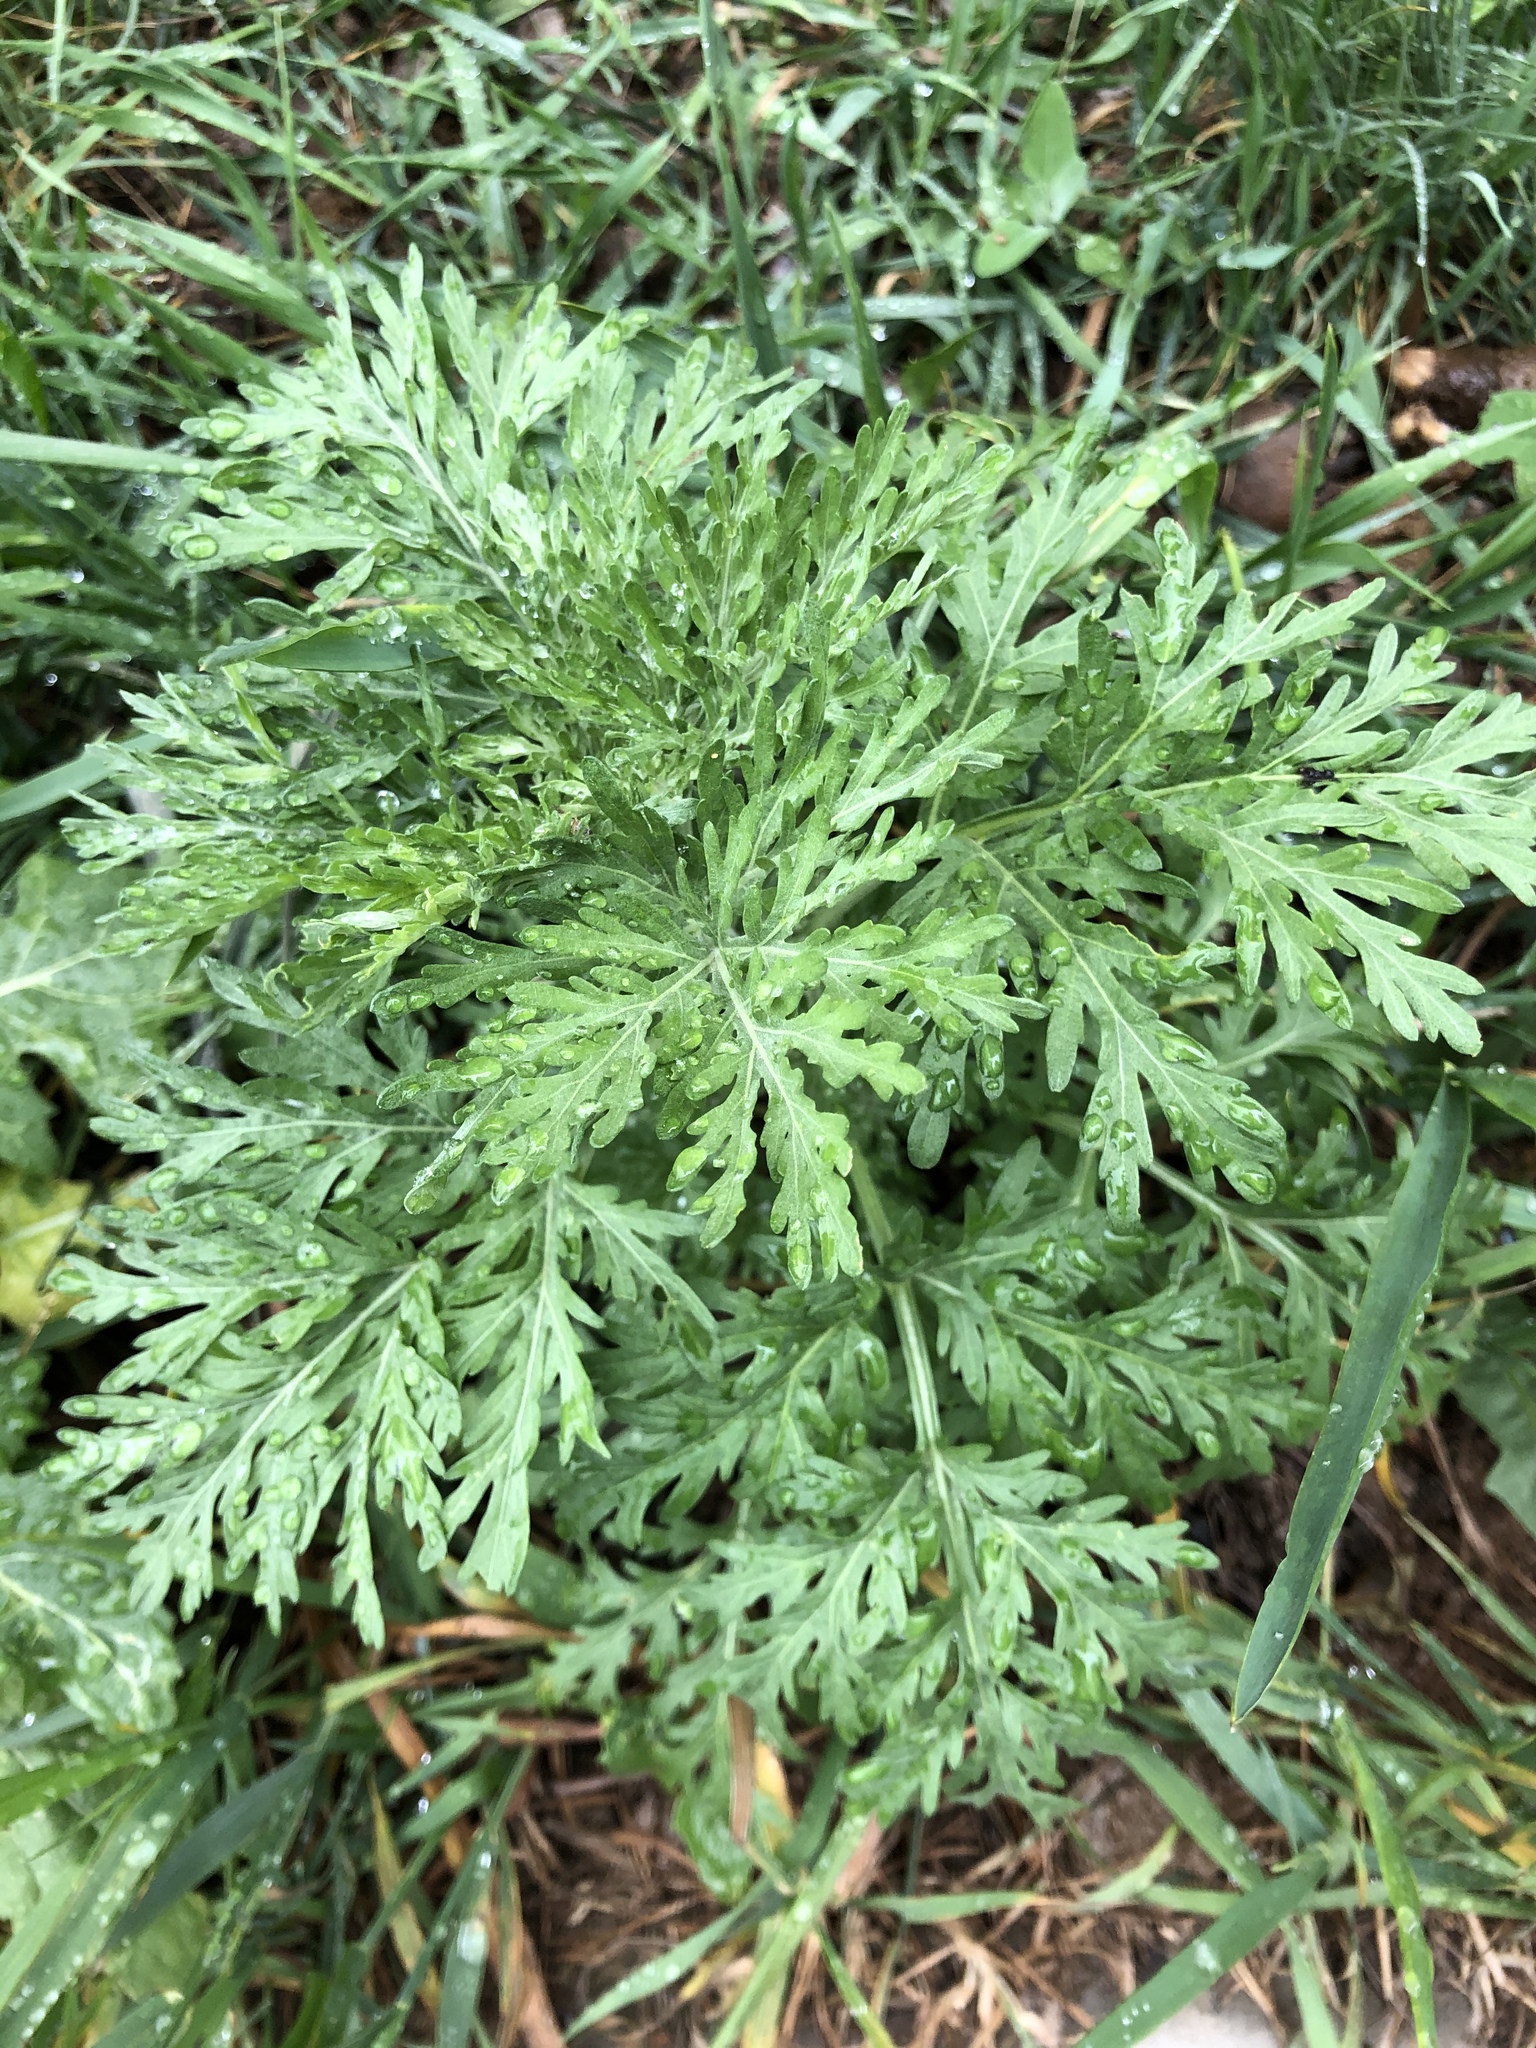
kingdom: Plantae
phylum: Tracheophyta
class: Magnoliopsida
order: Asterales
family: Asteraceae
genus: Artemisia
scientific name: Artemisia absinthium
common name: Wormwood
